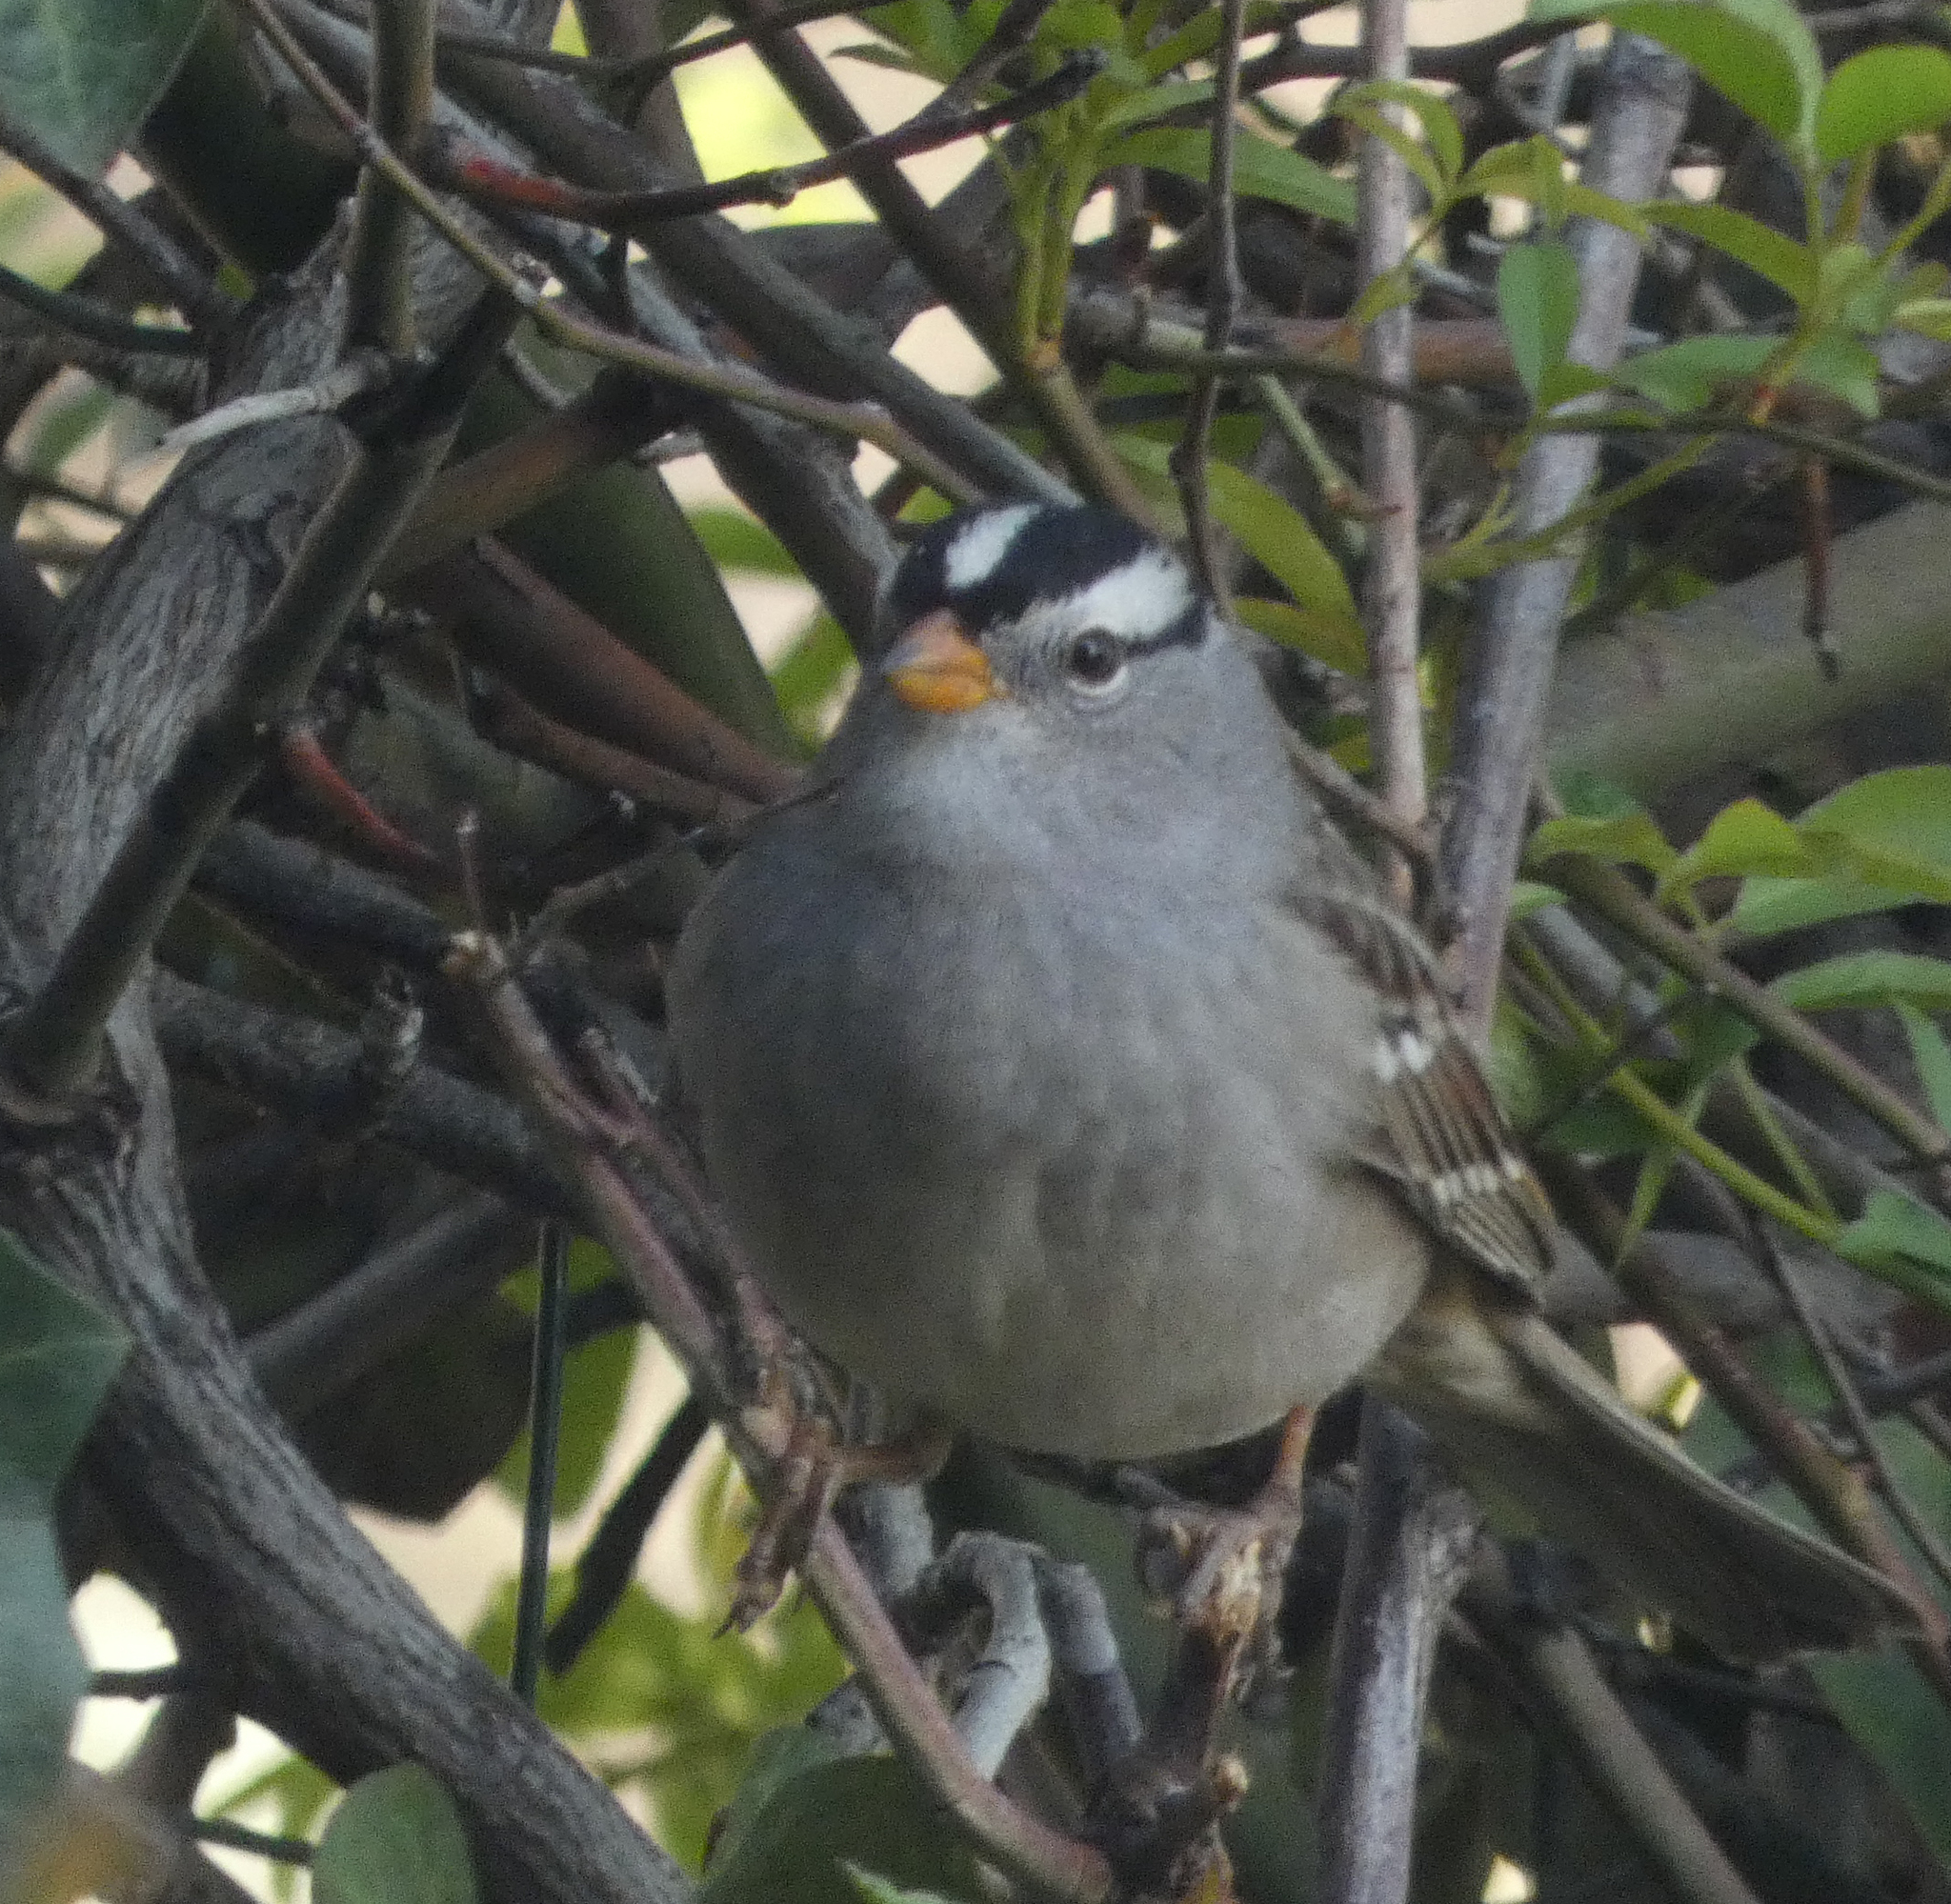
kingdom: Animalia
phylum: Chordata
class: Aves
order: Passeriformes
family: Passerellidae
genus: Zonotrichia
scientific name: Zonotrichia leucophrys
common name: White-crowned sparrow
